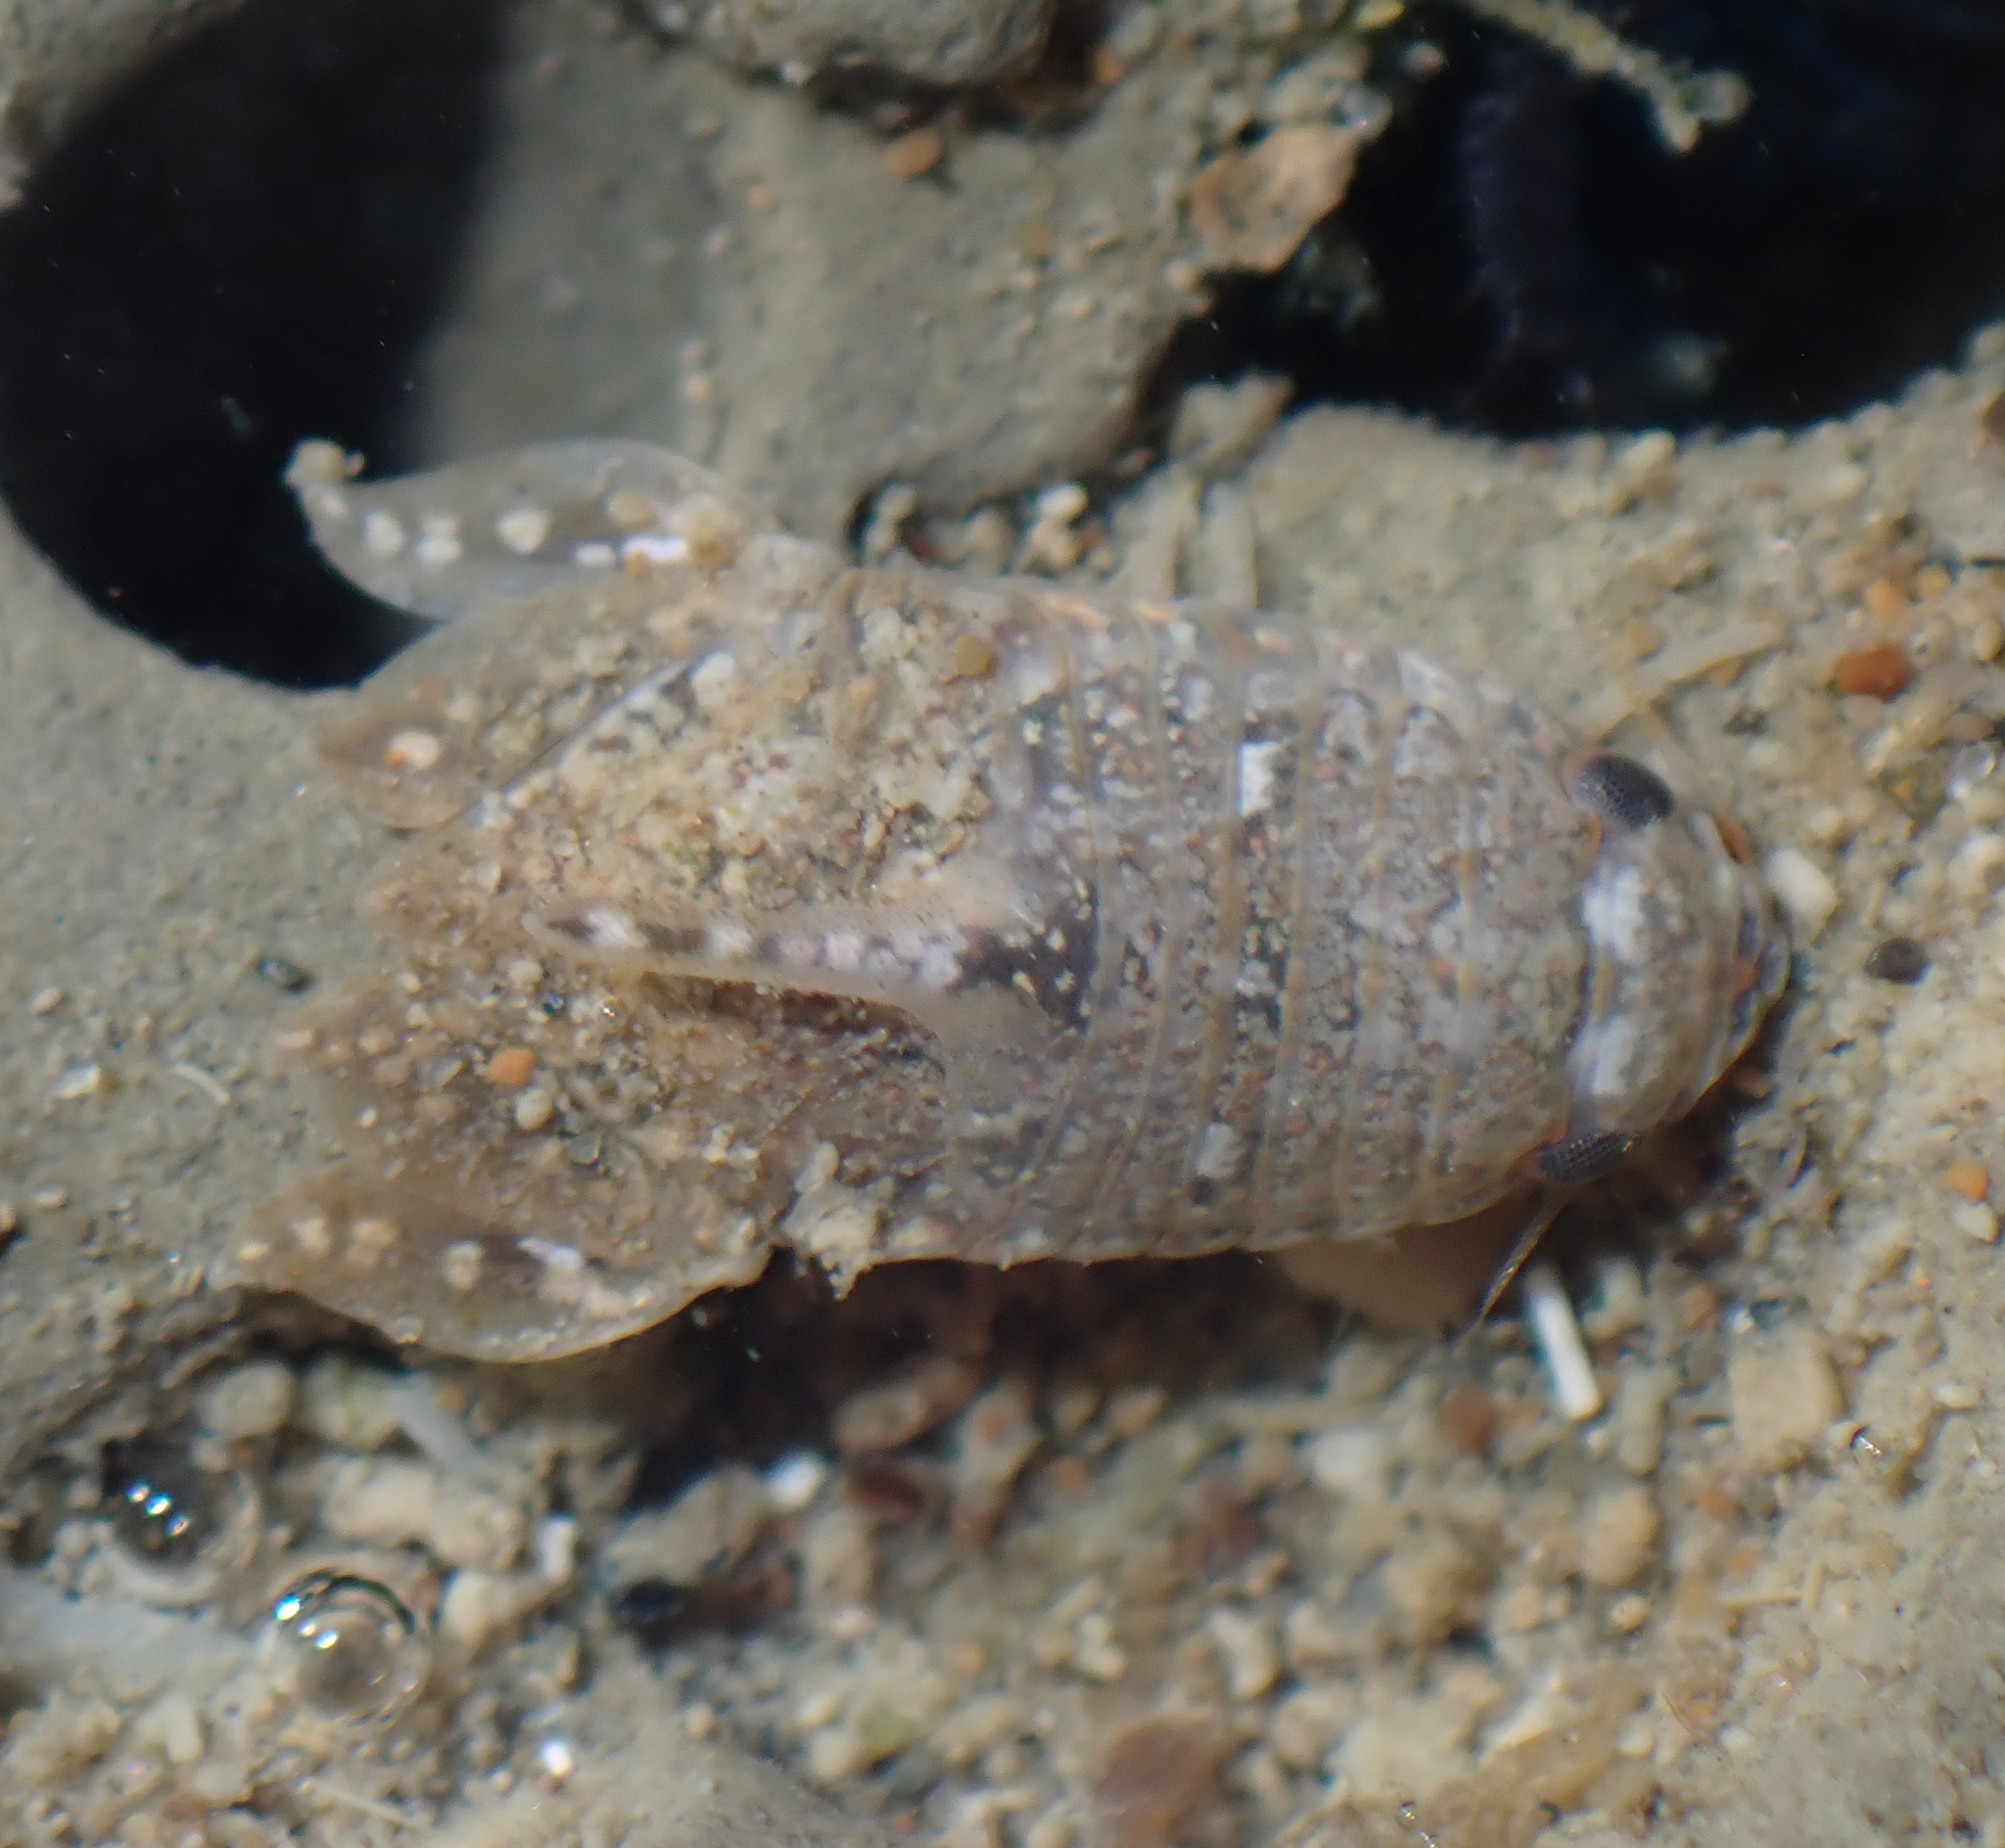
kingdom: Animalia
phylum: Arthropoda
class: Malacostraca
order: Isopoda
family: Sphaeromatidae
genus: Isocladus
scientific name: Isocladus armatus
